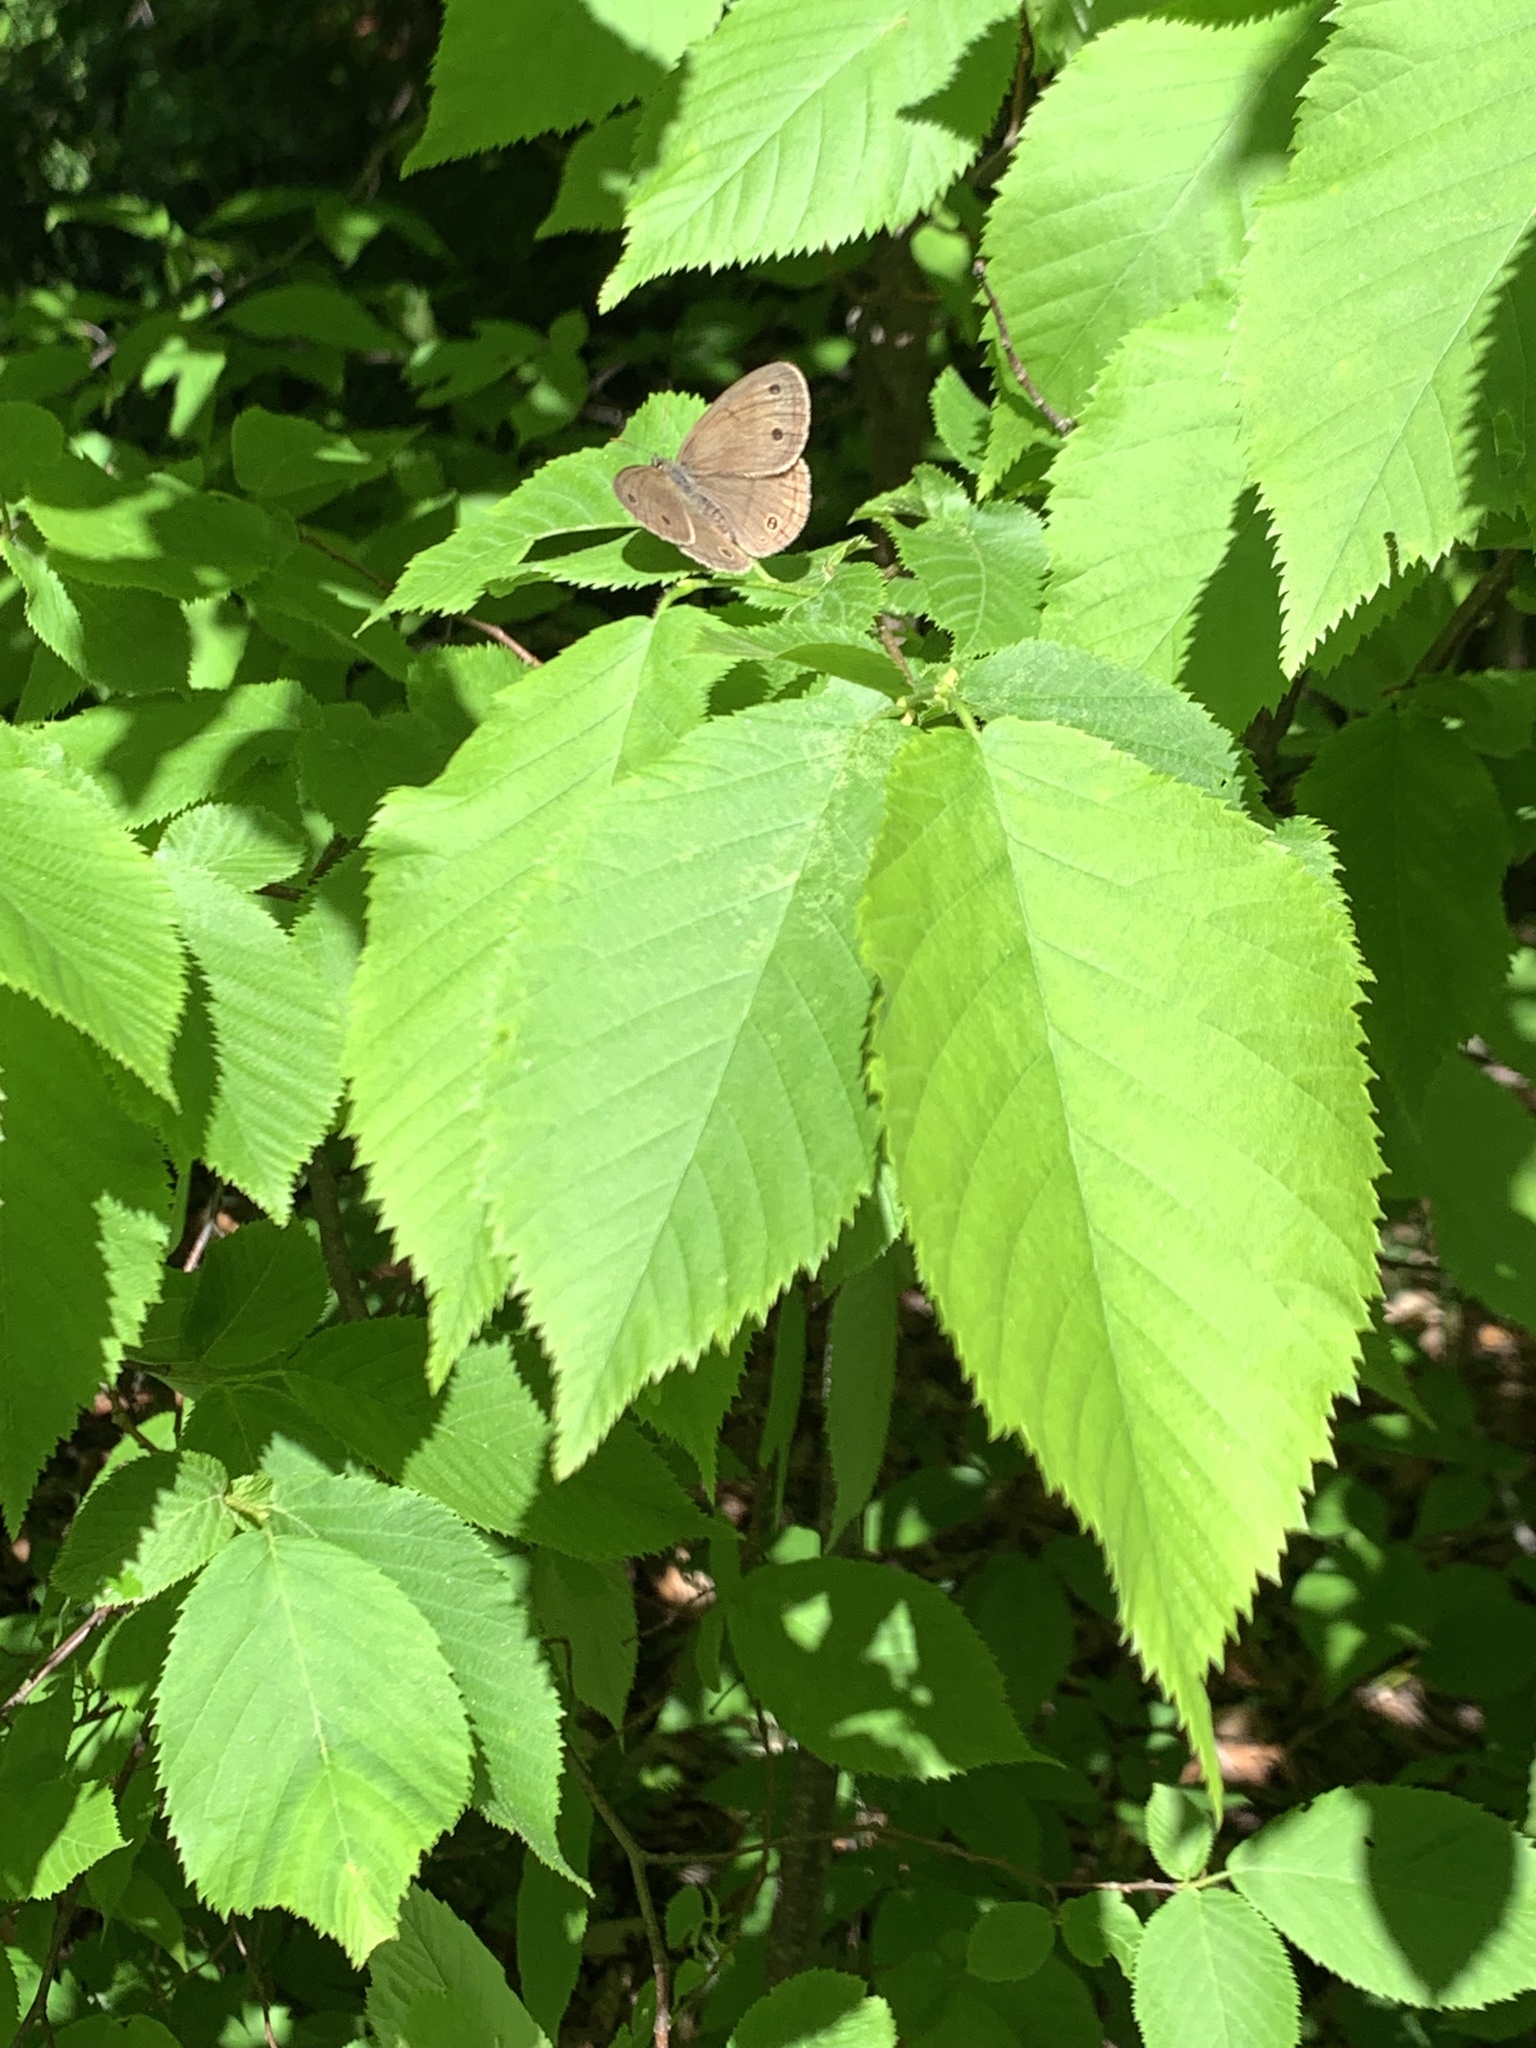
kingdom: Animalia
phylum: Arthropoda
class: Insecta
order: Lepidoptera
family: Nymphalidae
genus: Euptychia
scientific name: Euptychia cymela
